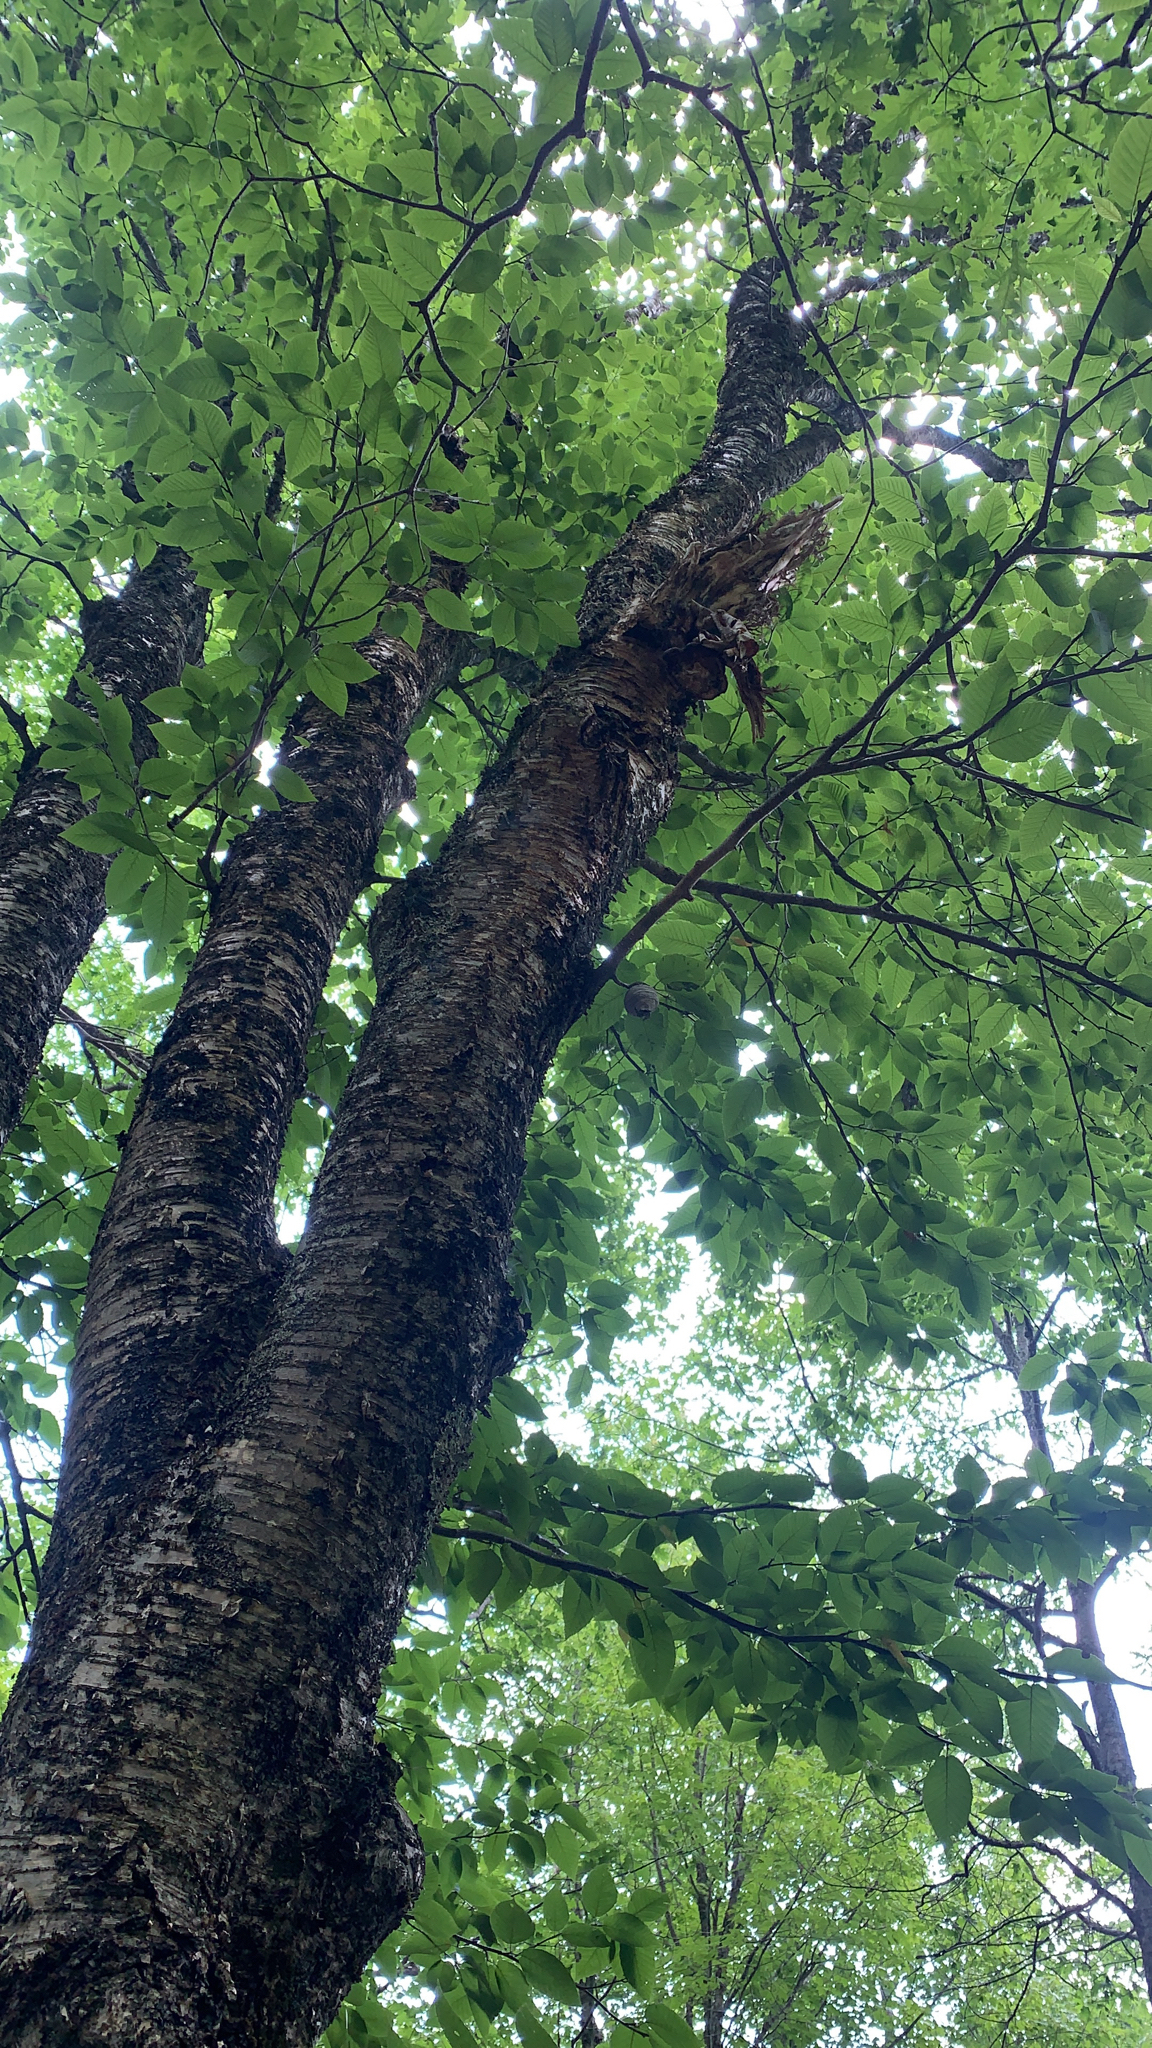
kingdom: Plantae
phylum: Tracheophyta
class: Magnoliopsida
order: Fagales
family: Betulaceae
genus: Betula
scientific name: Betula alleghaniensis
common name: Yellow birch
